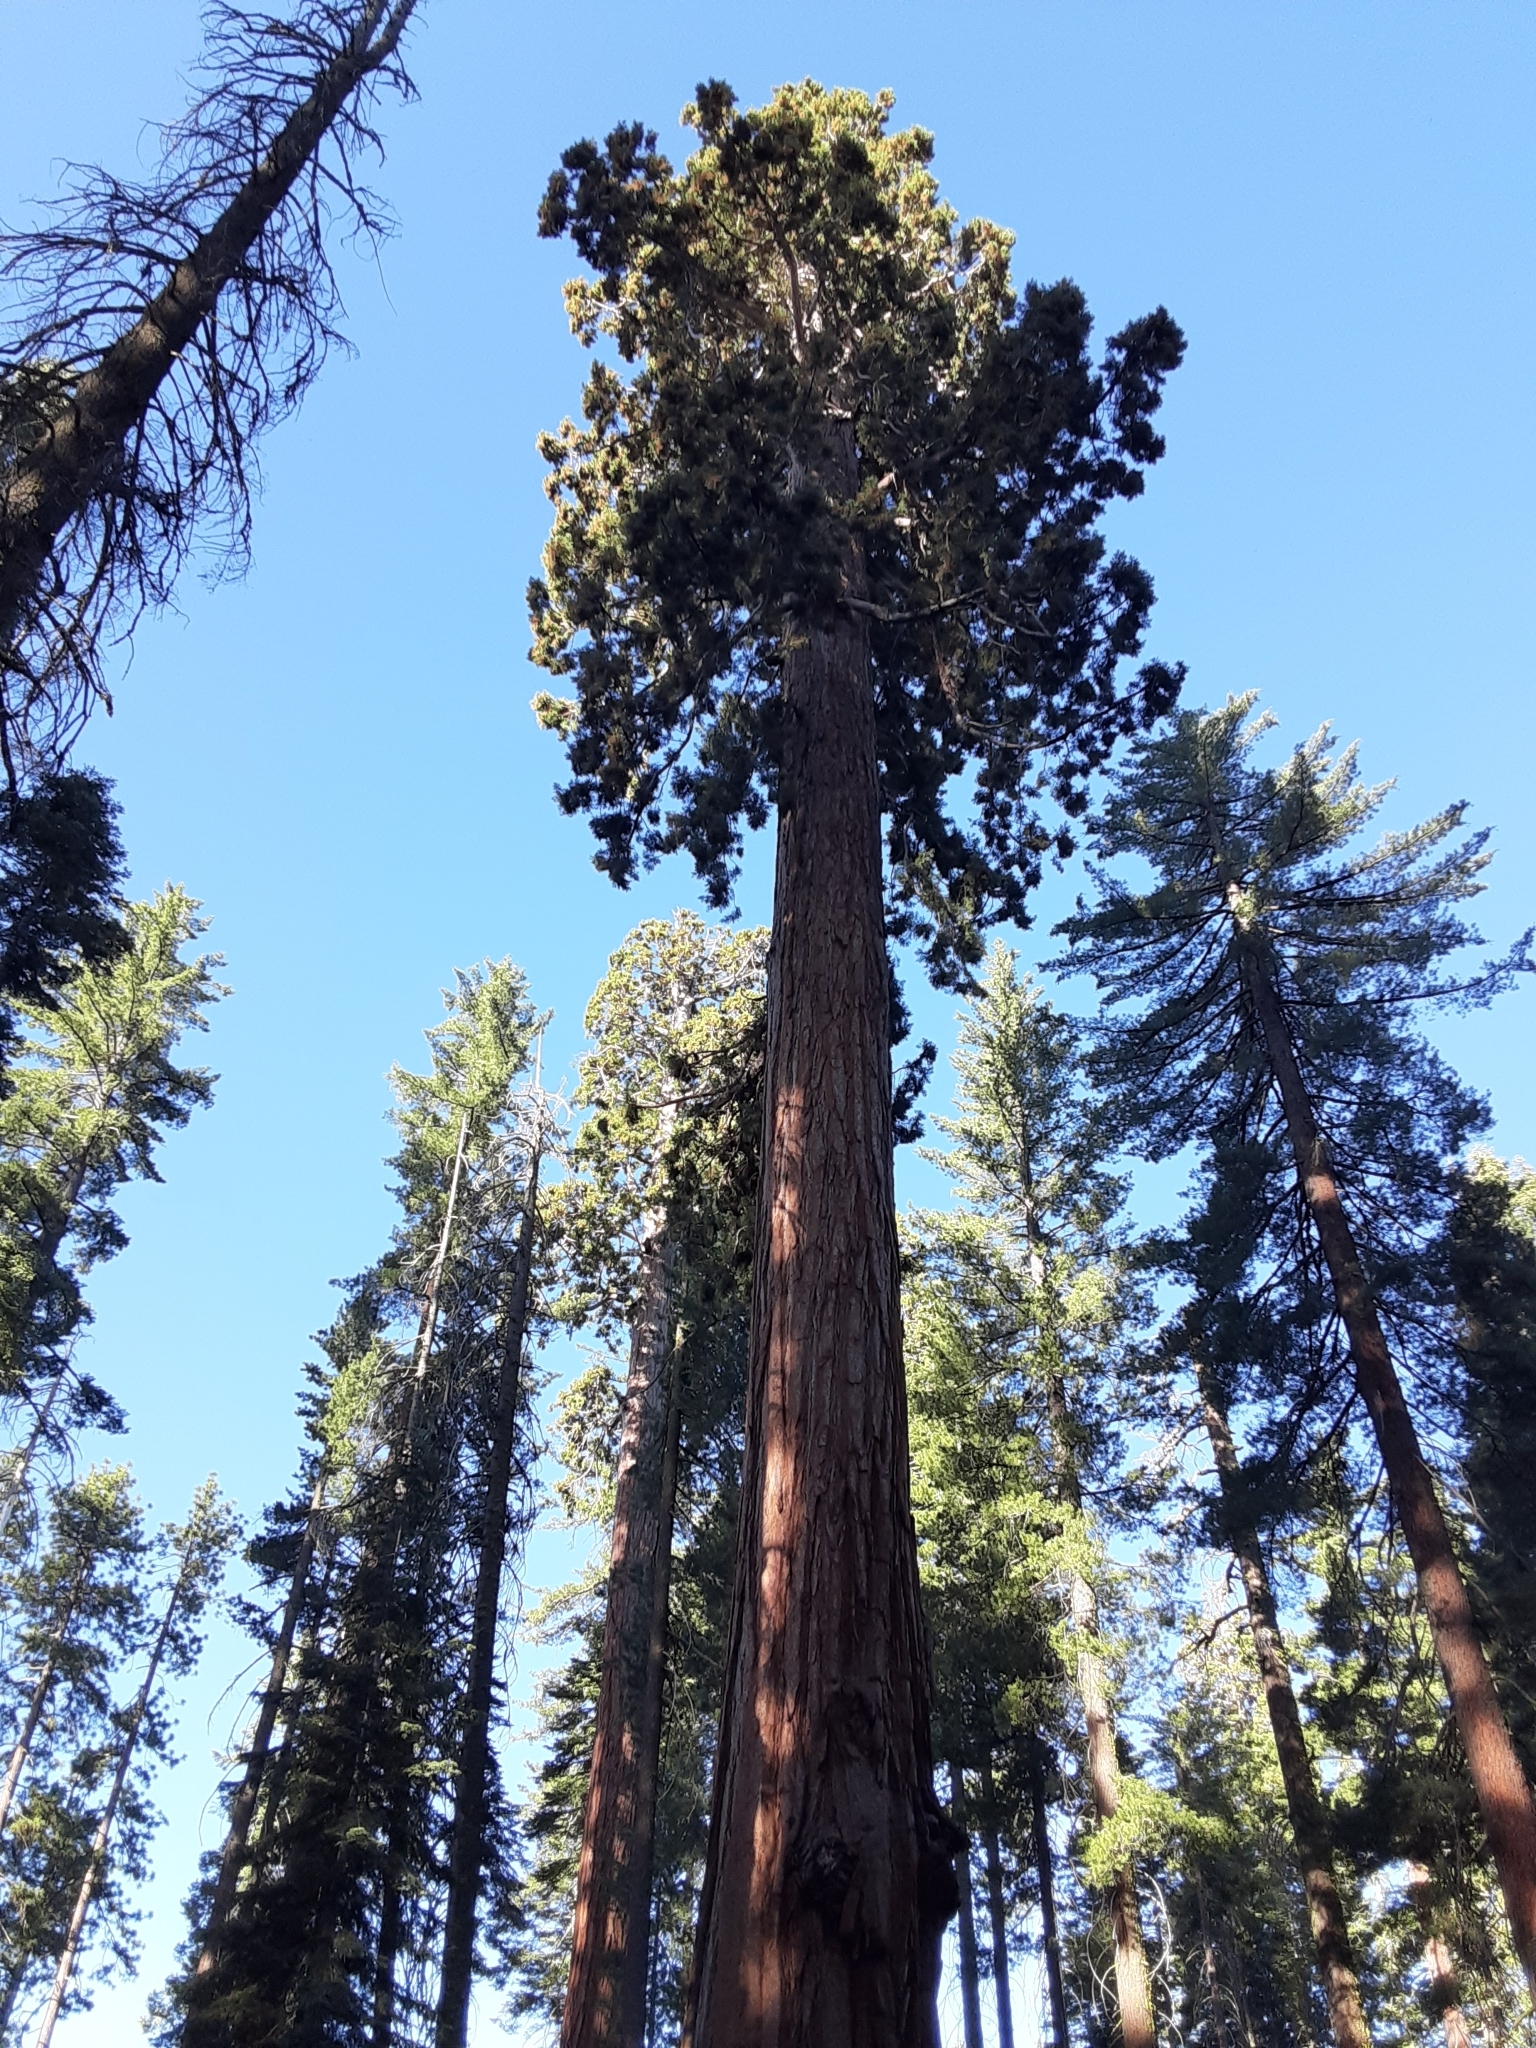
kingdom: Plantae
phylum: Tracheophyta
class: Pinopsida
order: Pinales
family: Cupressaceae
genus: Sequoiadendron
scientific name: Sequoiadendron giganteum
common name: Wellingtonia
